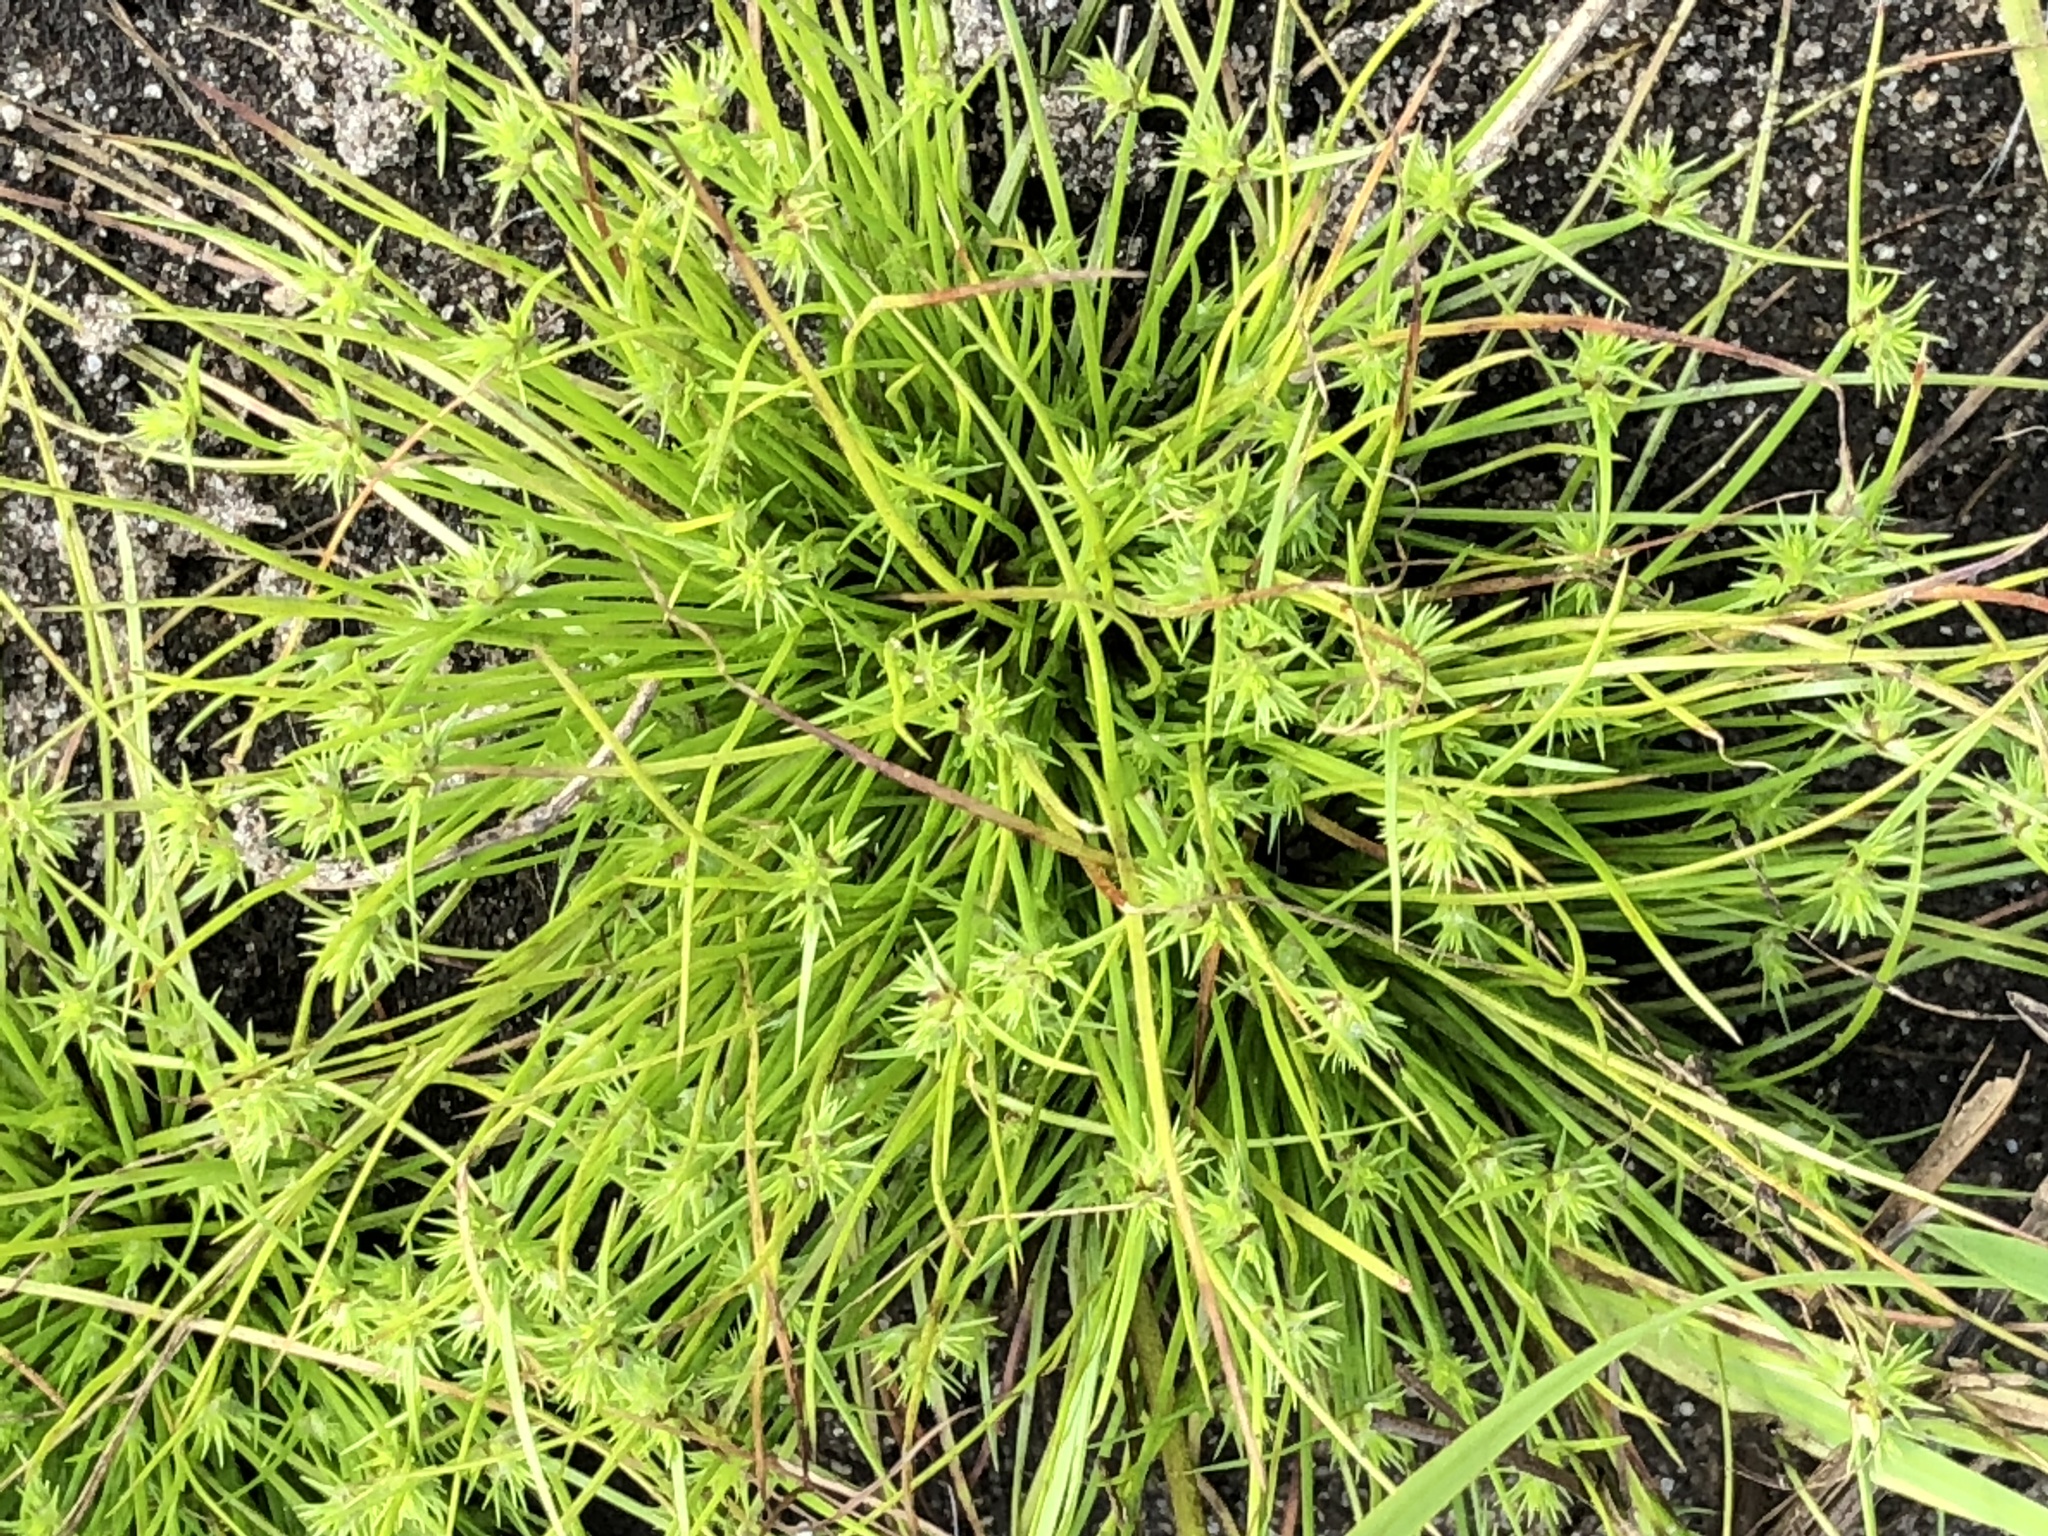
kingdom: Plantae
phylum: Tracheophyta
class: Liliopsida
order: Poales
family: Cyperaceae
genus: Isolepis
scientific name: Isolepis hystrix
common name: Bottlebrush bulrush
